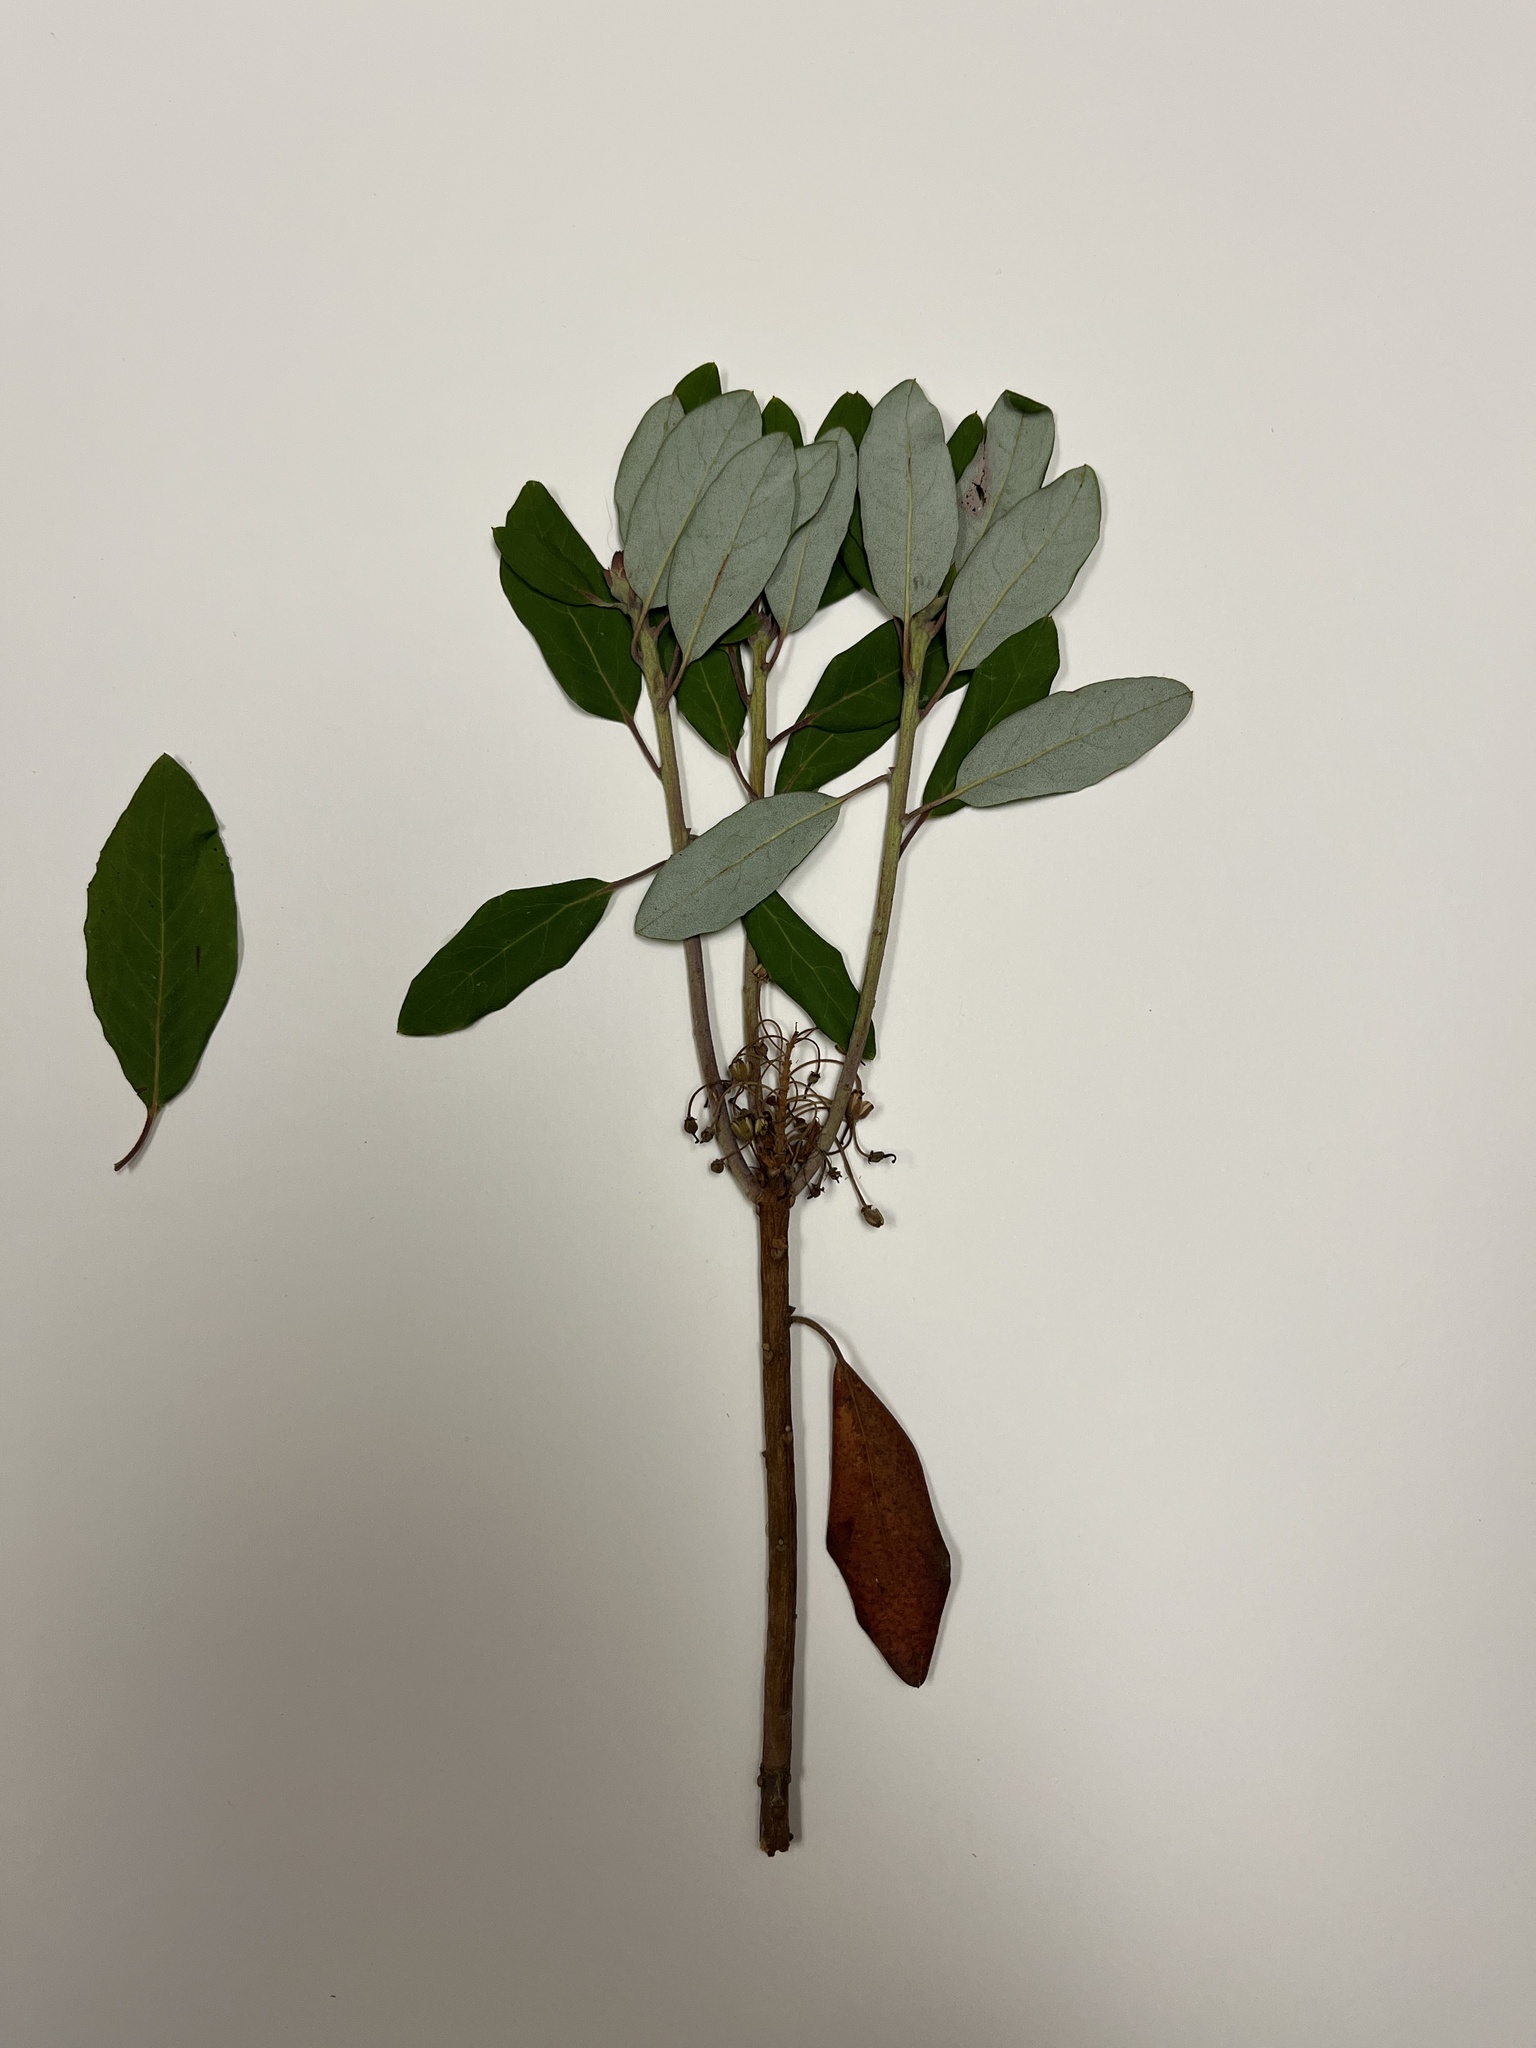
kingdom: Plantae
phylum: Tracheophyta
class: Magnoliopsida
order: Ericales
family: Ericaceae
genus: Rhododendron
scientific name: Rhododendron columbianum
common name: Western labrador tea
